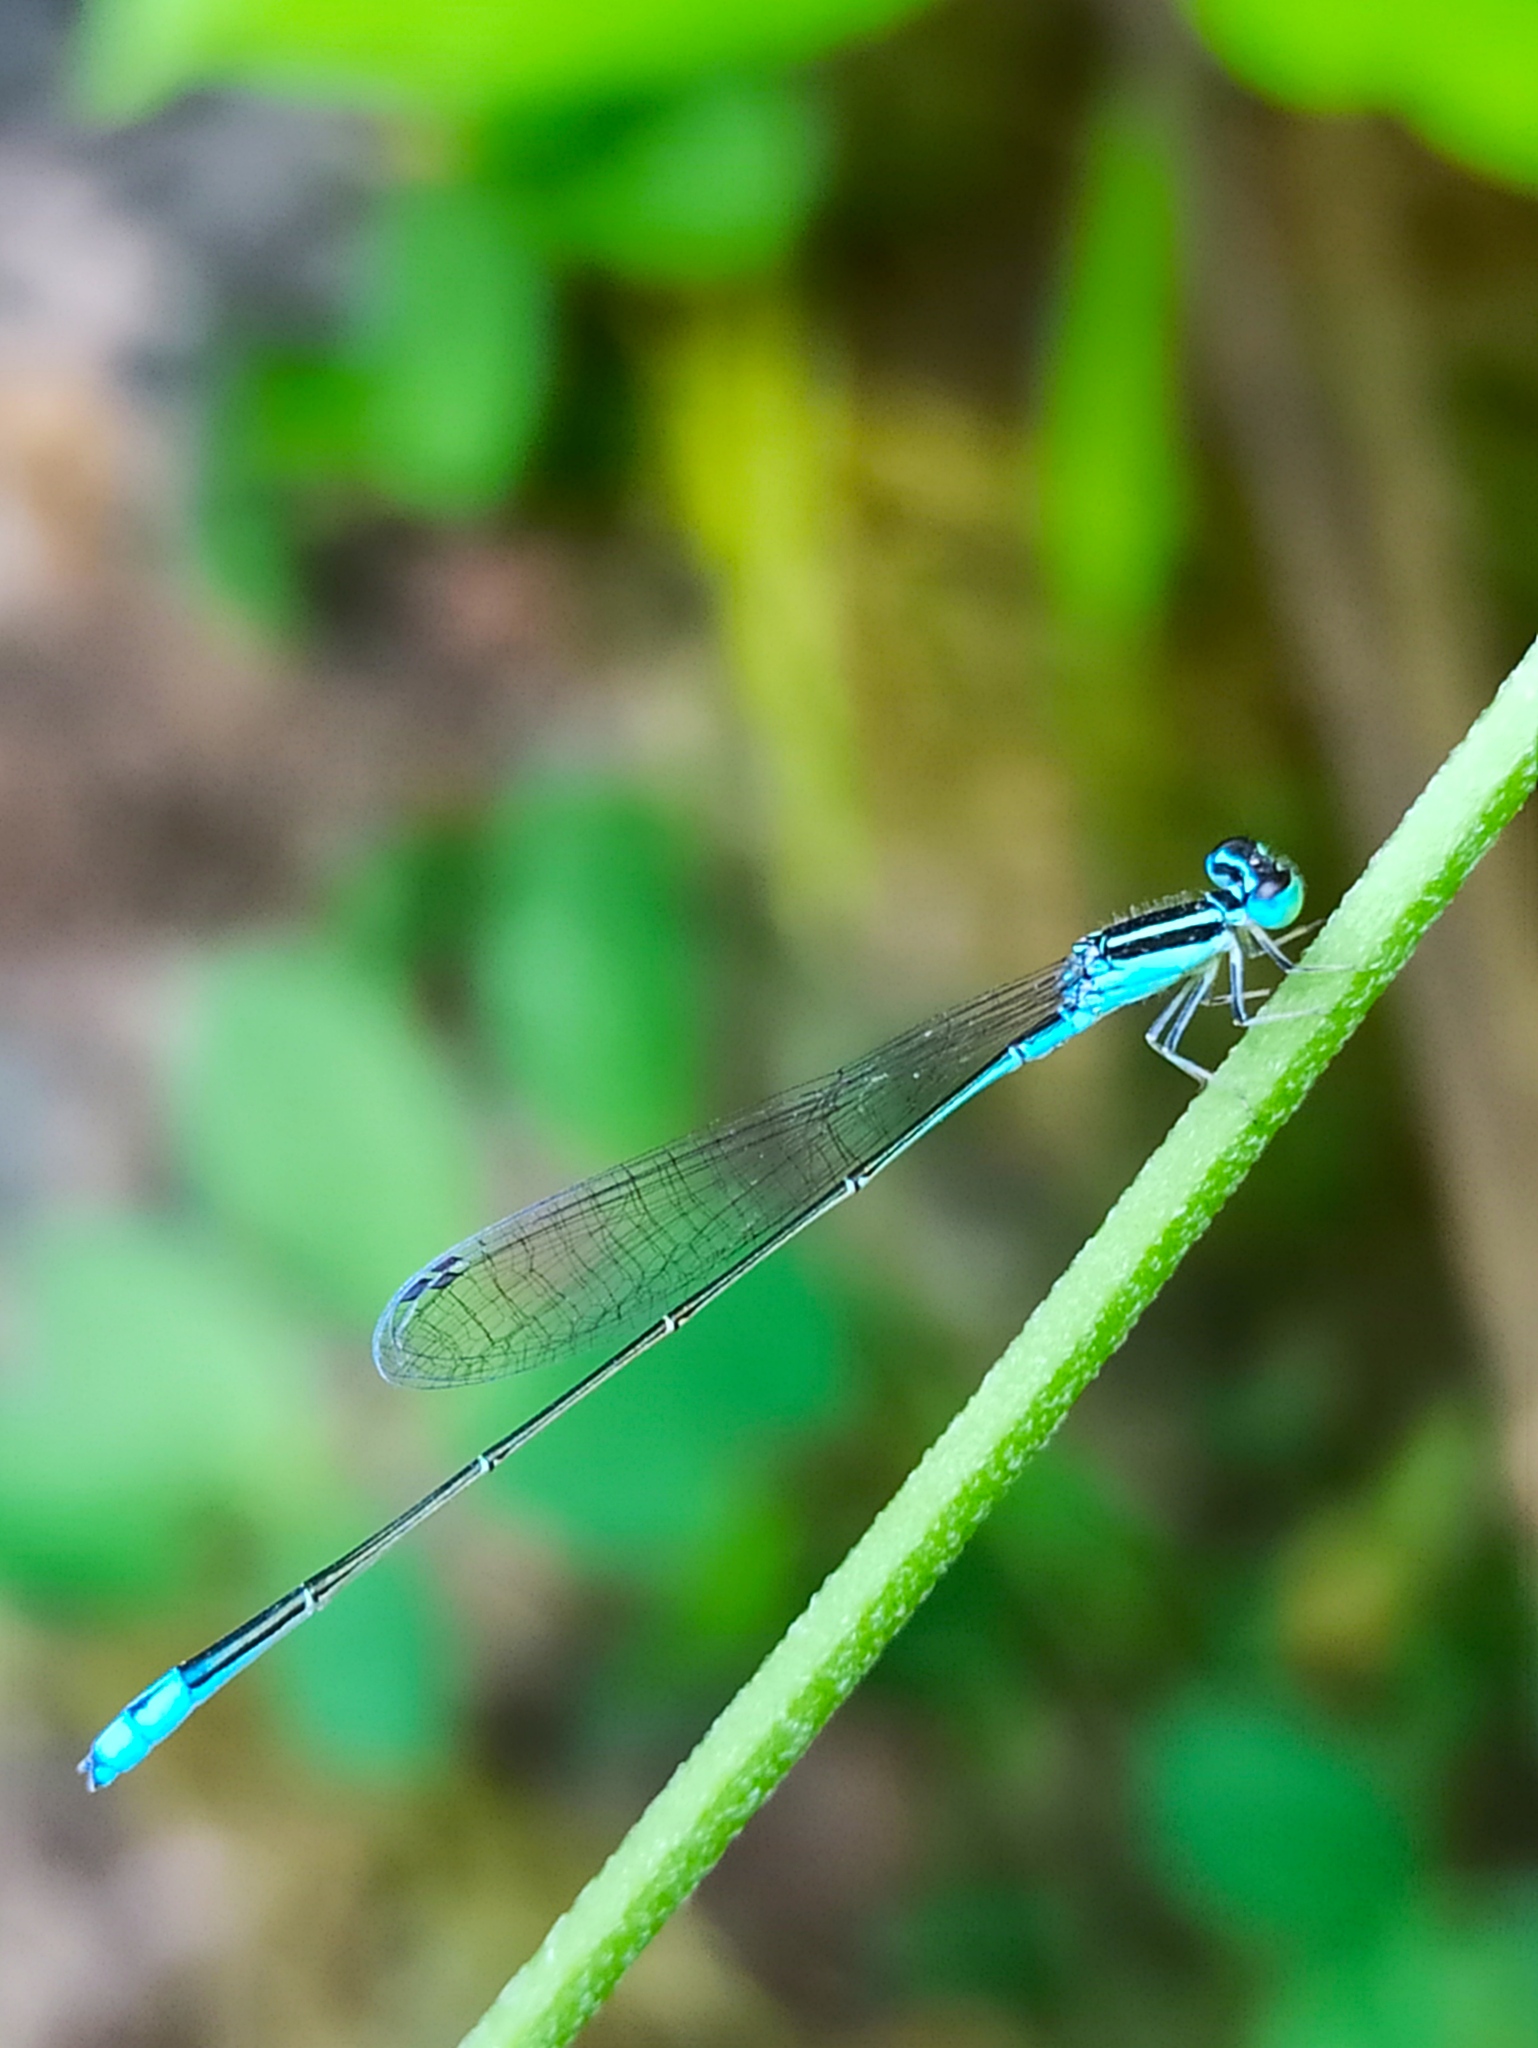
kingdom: Animalia
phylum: Arthropoda
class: Insecta
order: Odonata
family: Coenagrionidae
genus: Aciagrion
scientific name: Aciagrion occidentale
